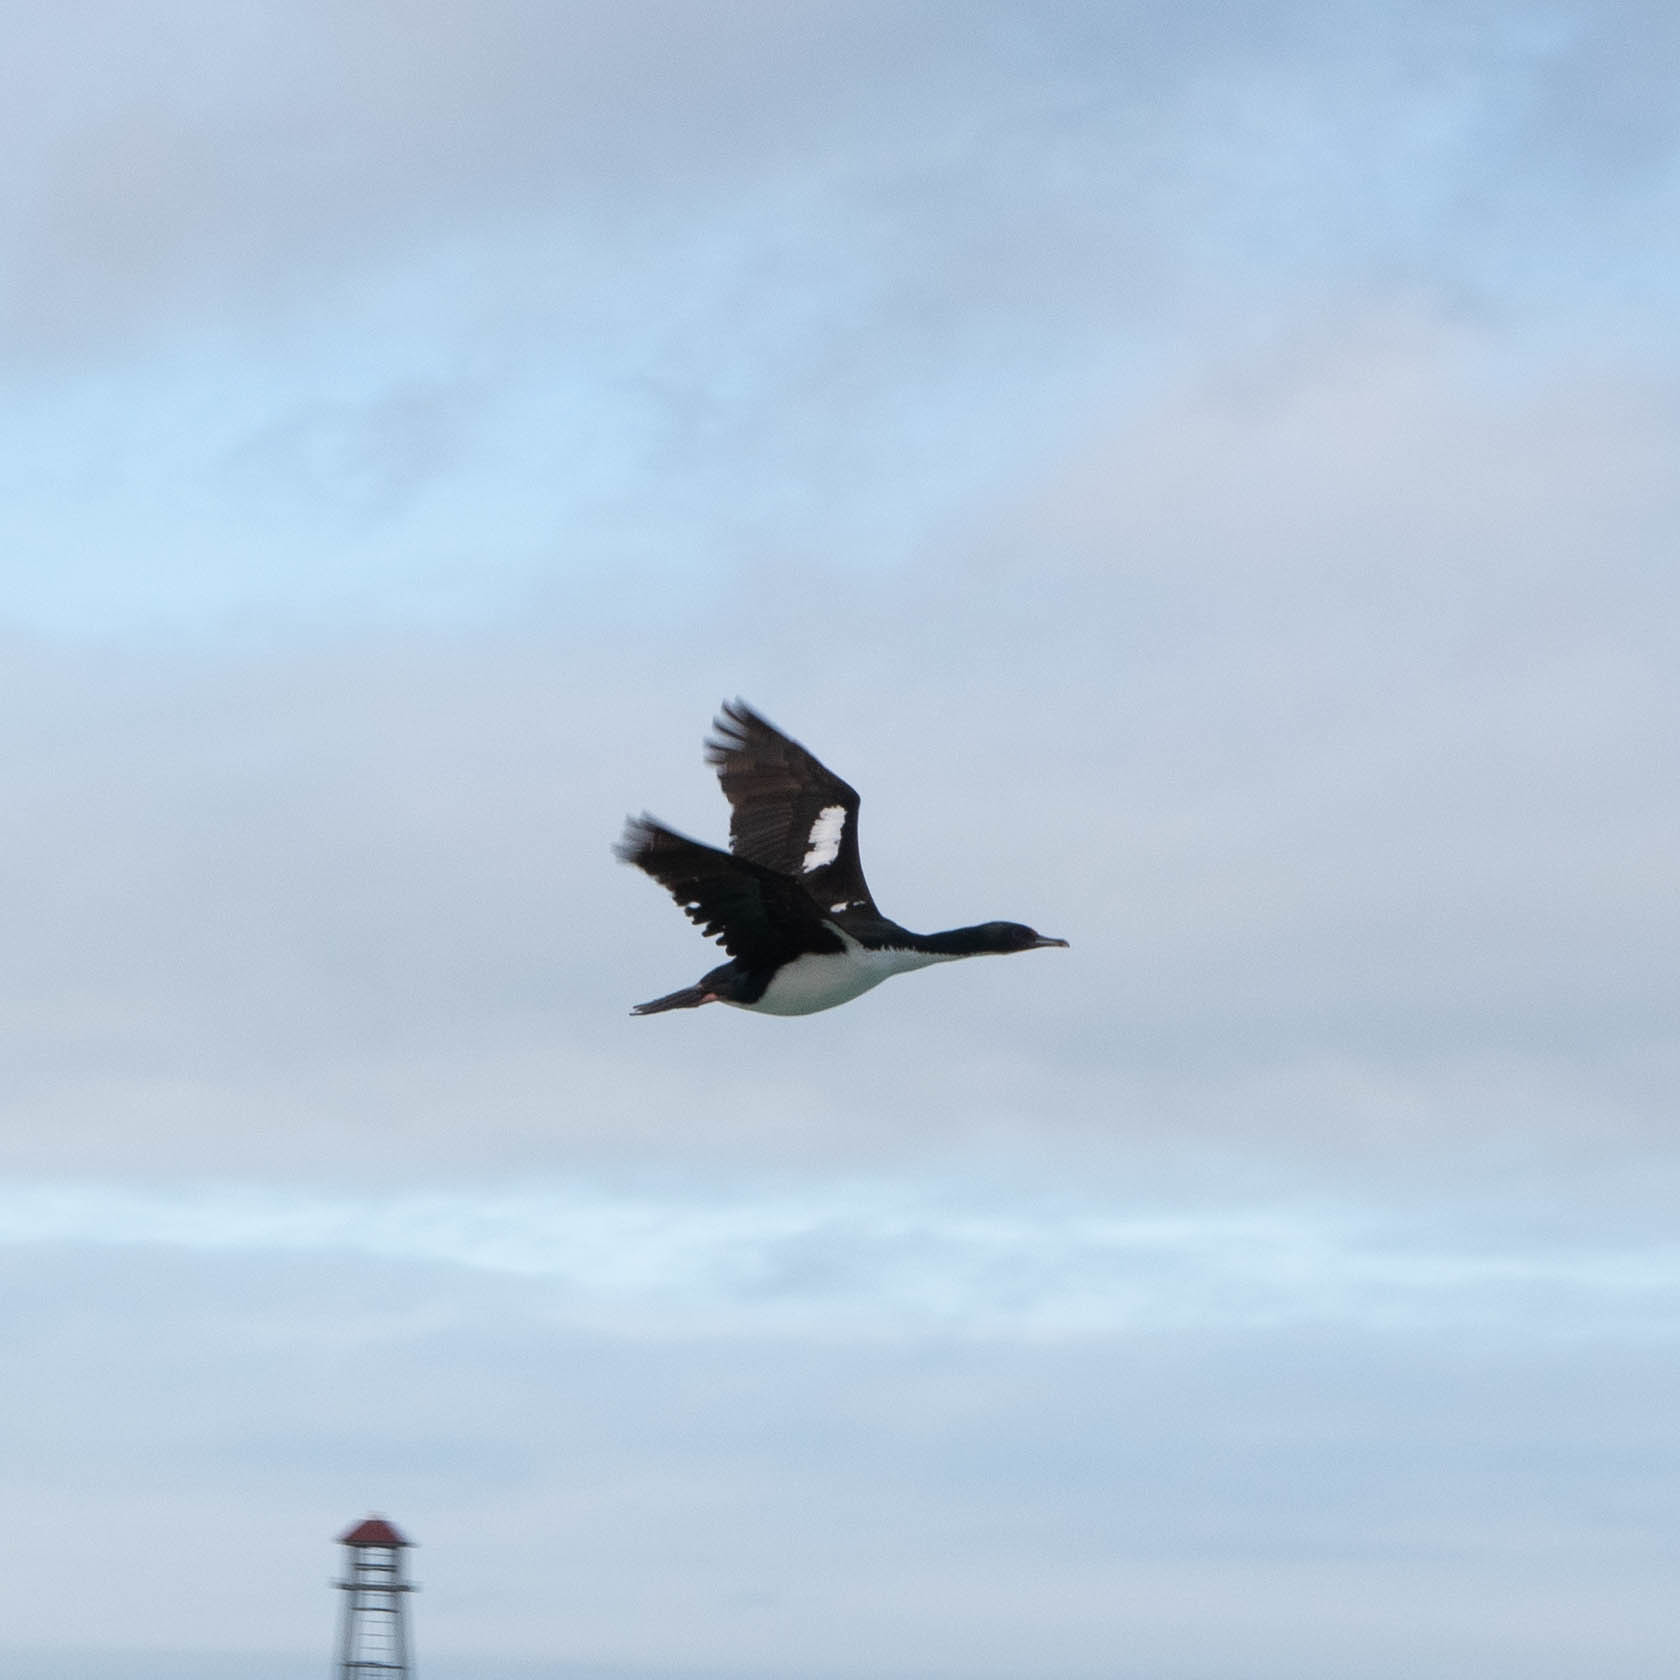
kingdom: Animalia
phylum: Chordata
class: Aves
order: Suliformes
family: Phalacrocoracidae
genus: Leucocarbo
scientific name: Leucocarbo chalconotus
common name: Stewart shag
